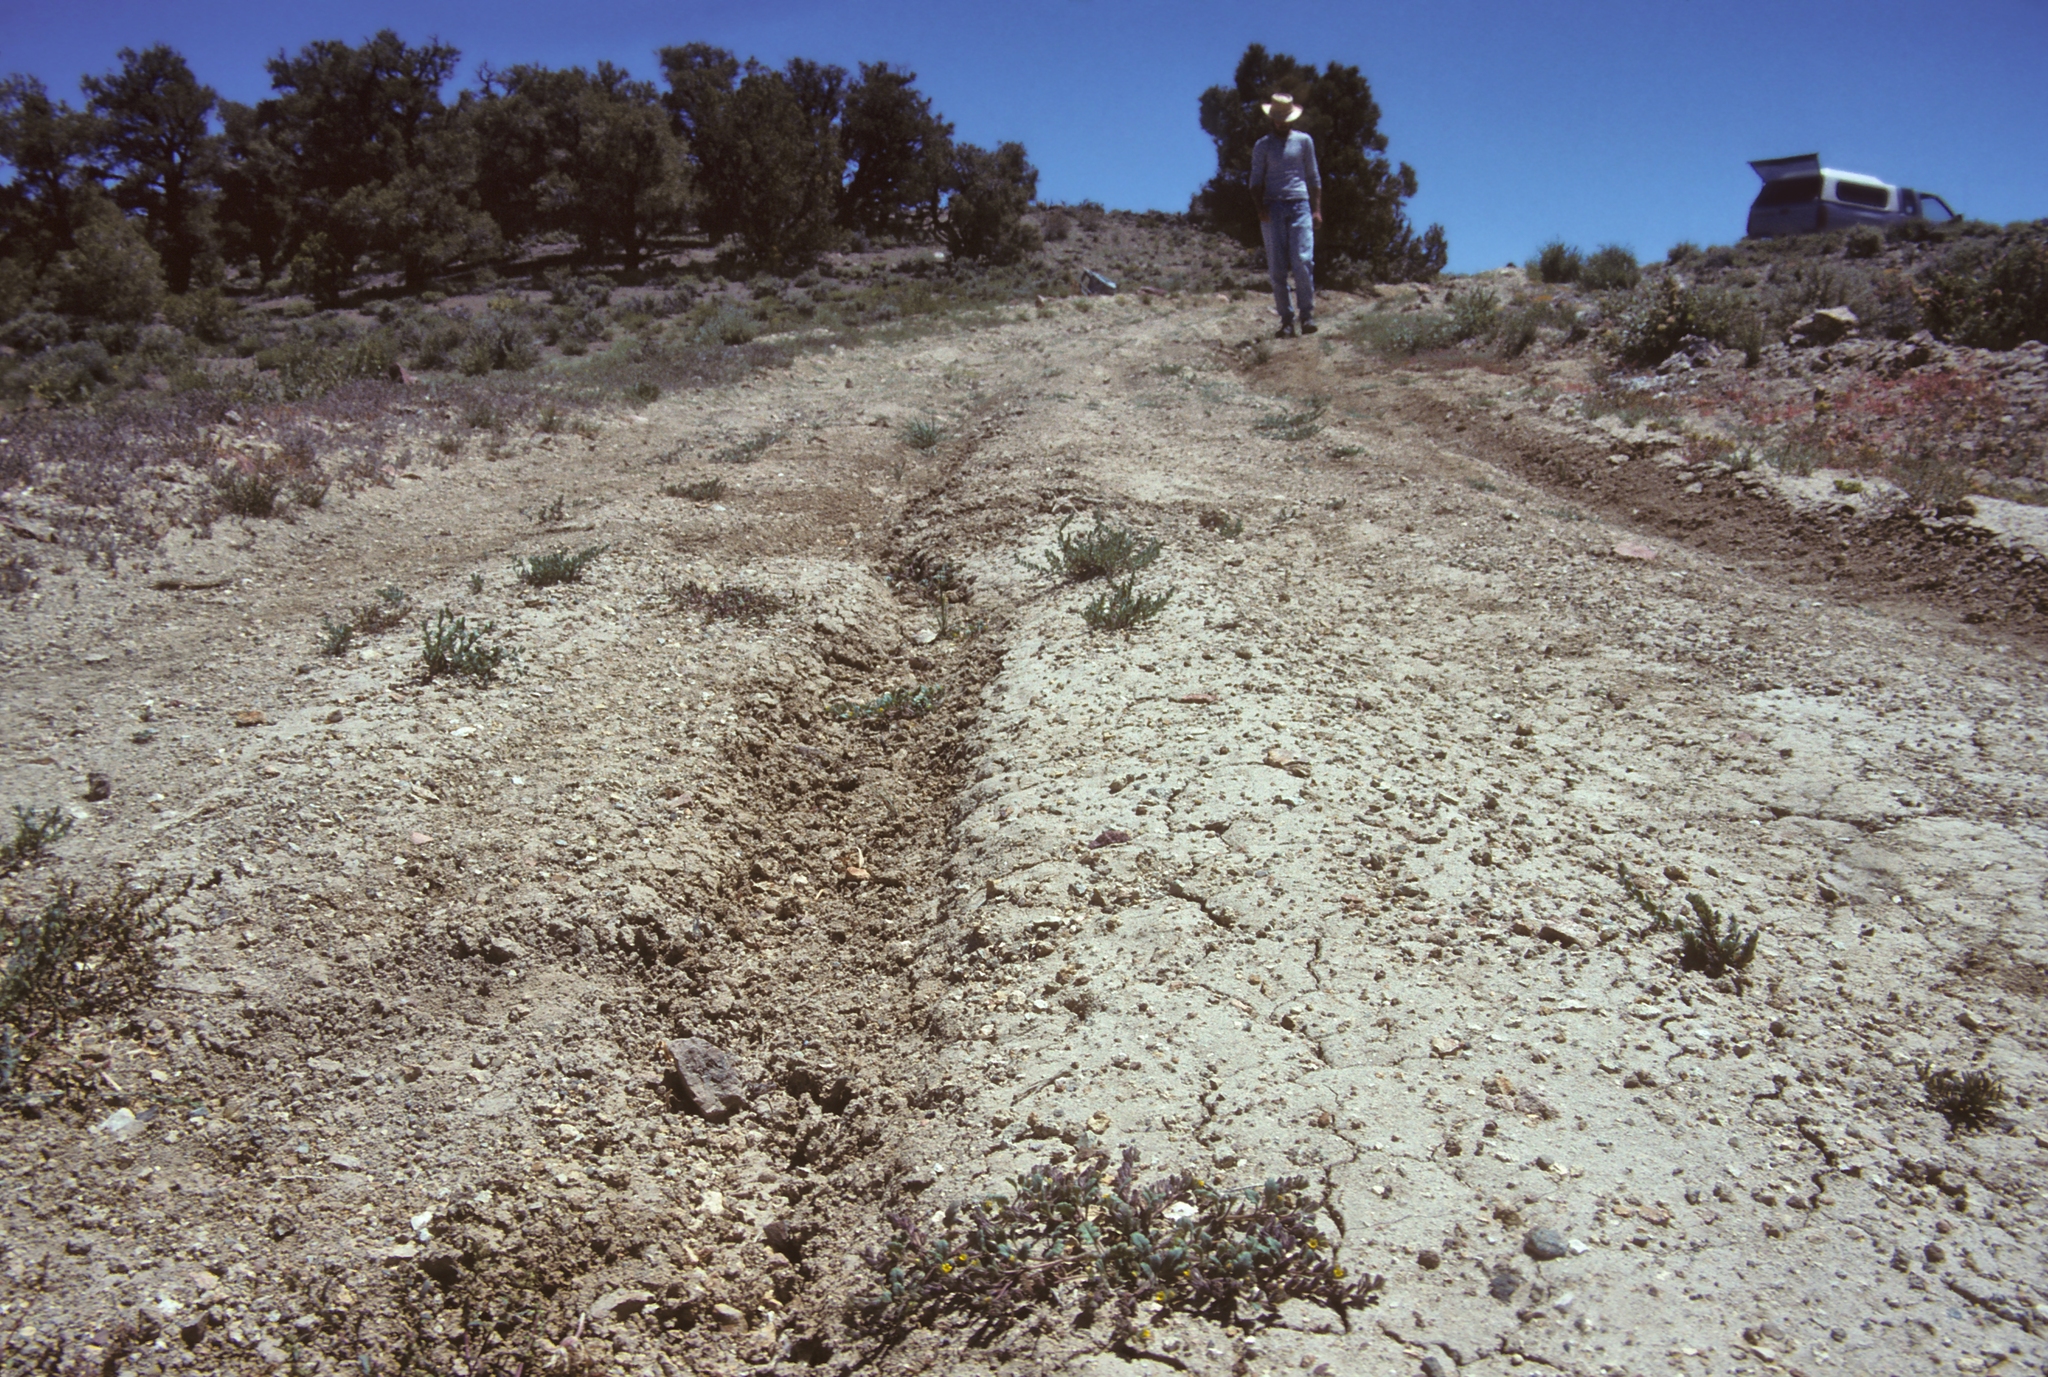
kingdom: Plantae
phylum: Tracheophyta
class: Magnoliopsida
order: Boraginales
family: Hydrophyllaceae
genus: Phacelia
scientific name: Phacelia monoensis
